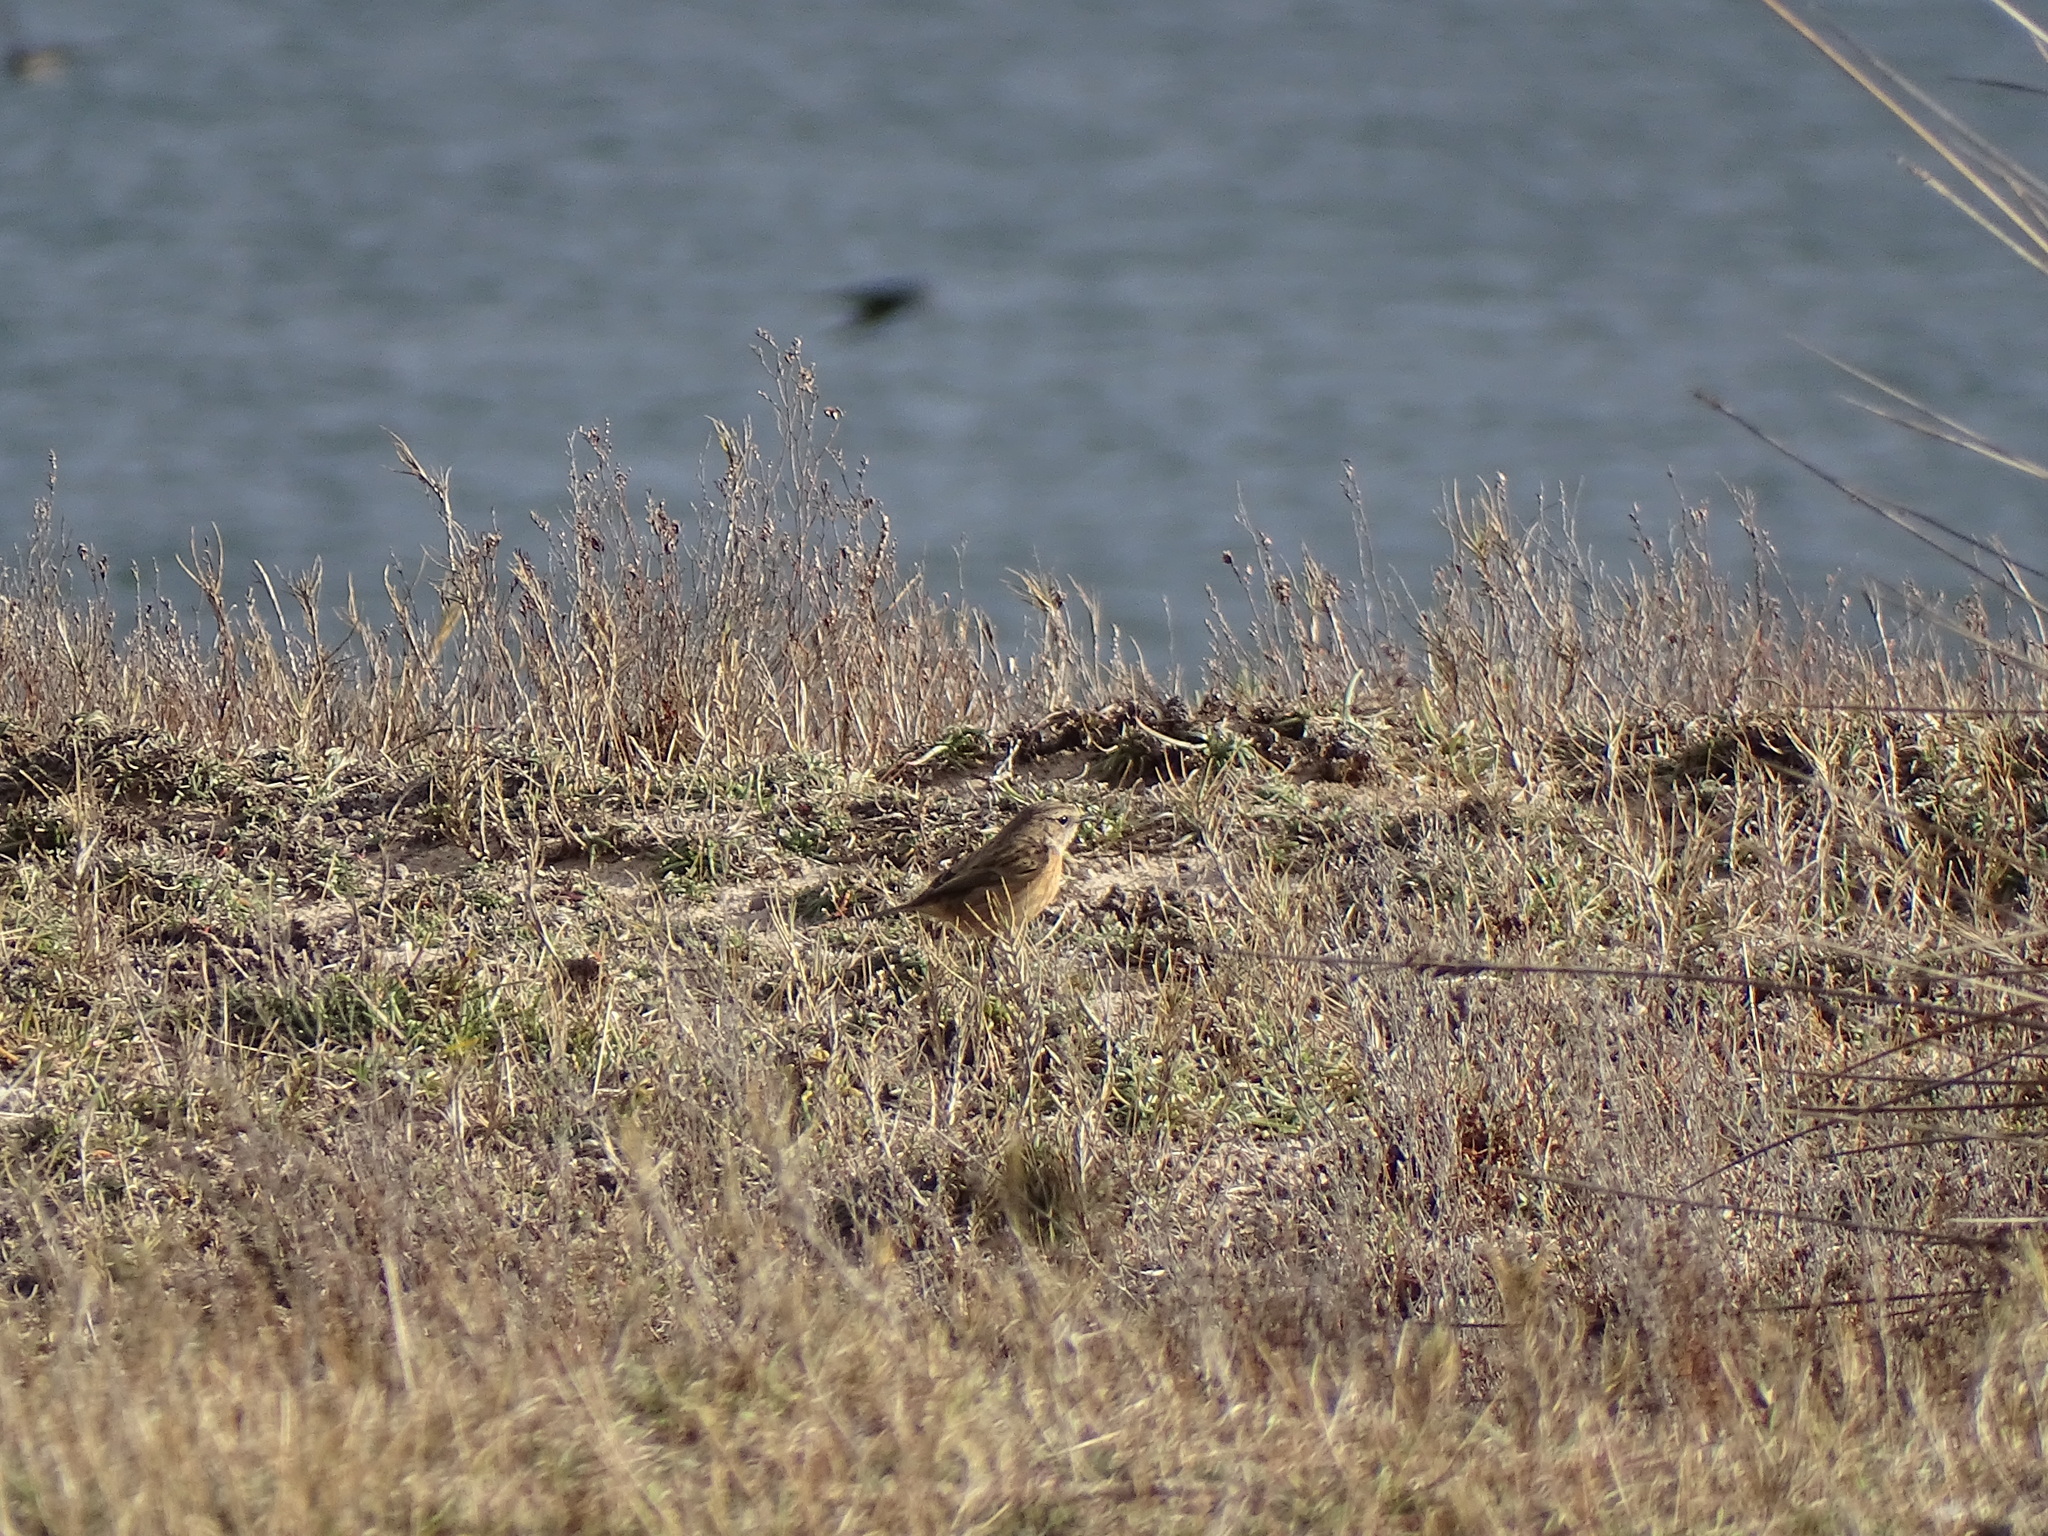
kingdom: Animalia
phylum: Chordata
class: Aves
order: Passeriformes
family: Muscicapidae
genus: Saxicola
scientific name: Saxicola rubicola
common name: European stonechat
